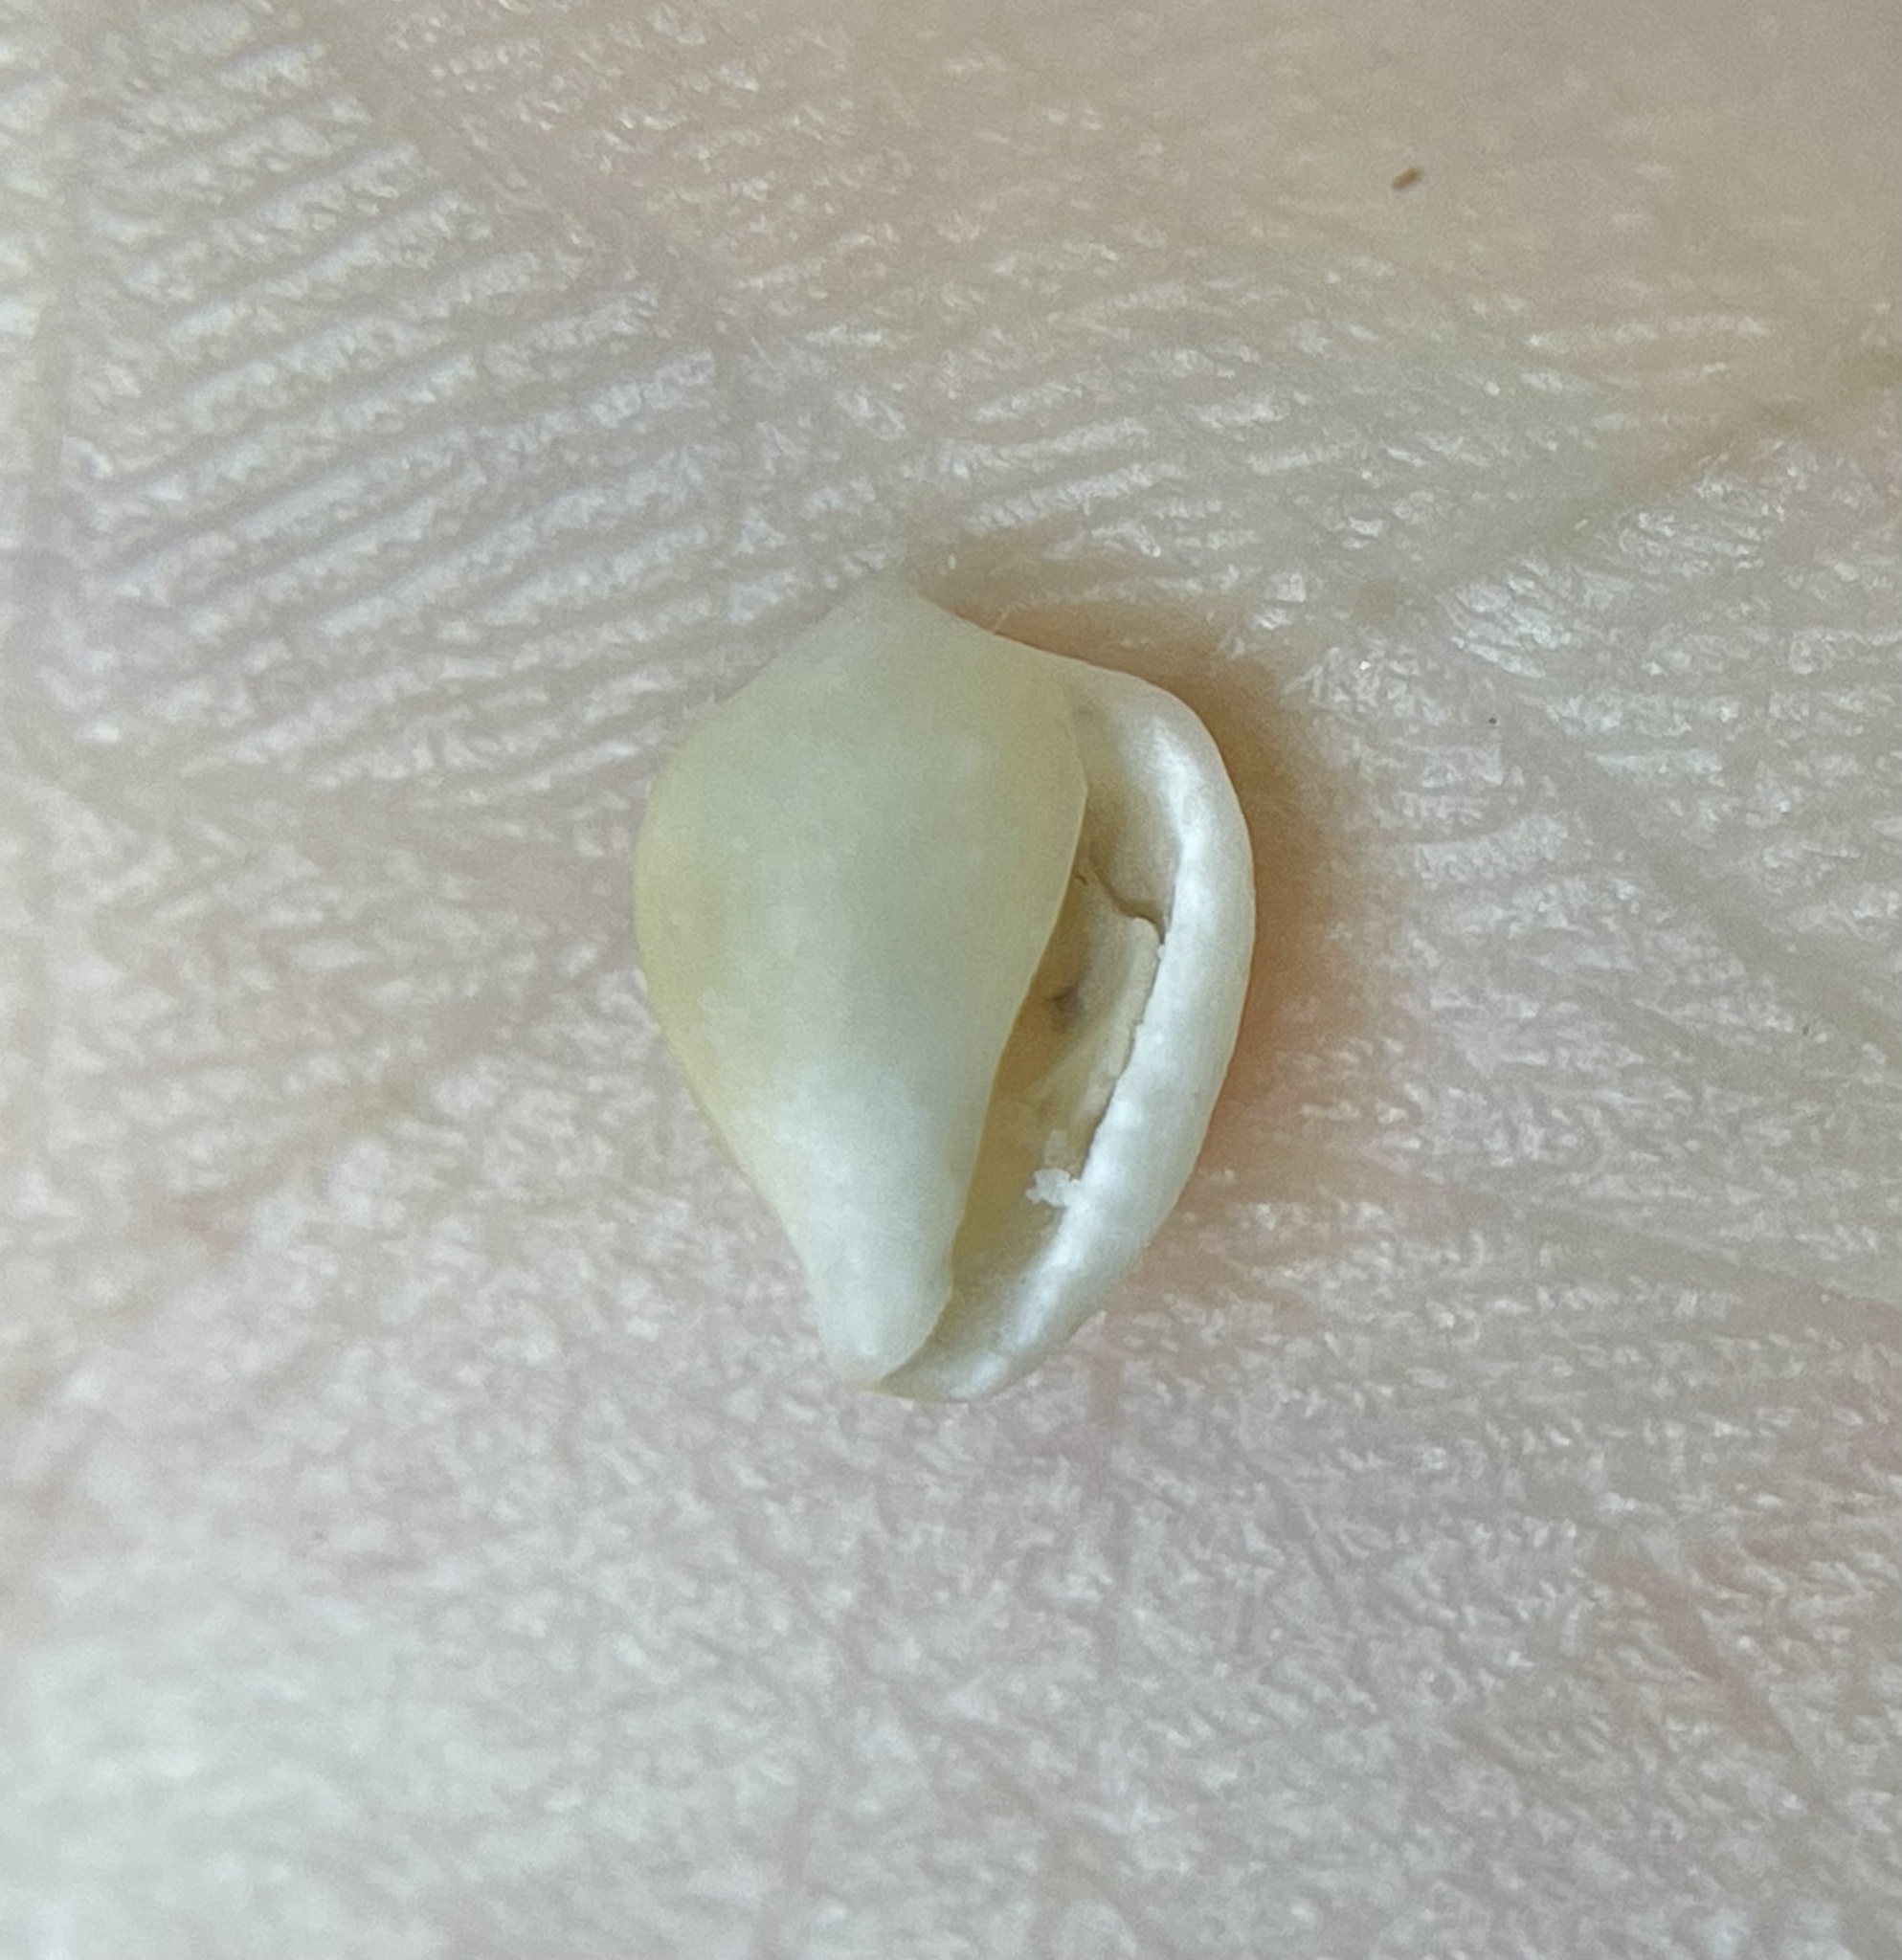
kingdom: Animalia
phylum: Mollusca
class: Gastropoda
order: Littorinimorpha
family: Eratoidae
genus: Archierato
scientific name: Archierato maugeriae
